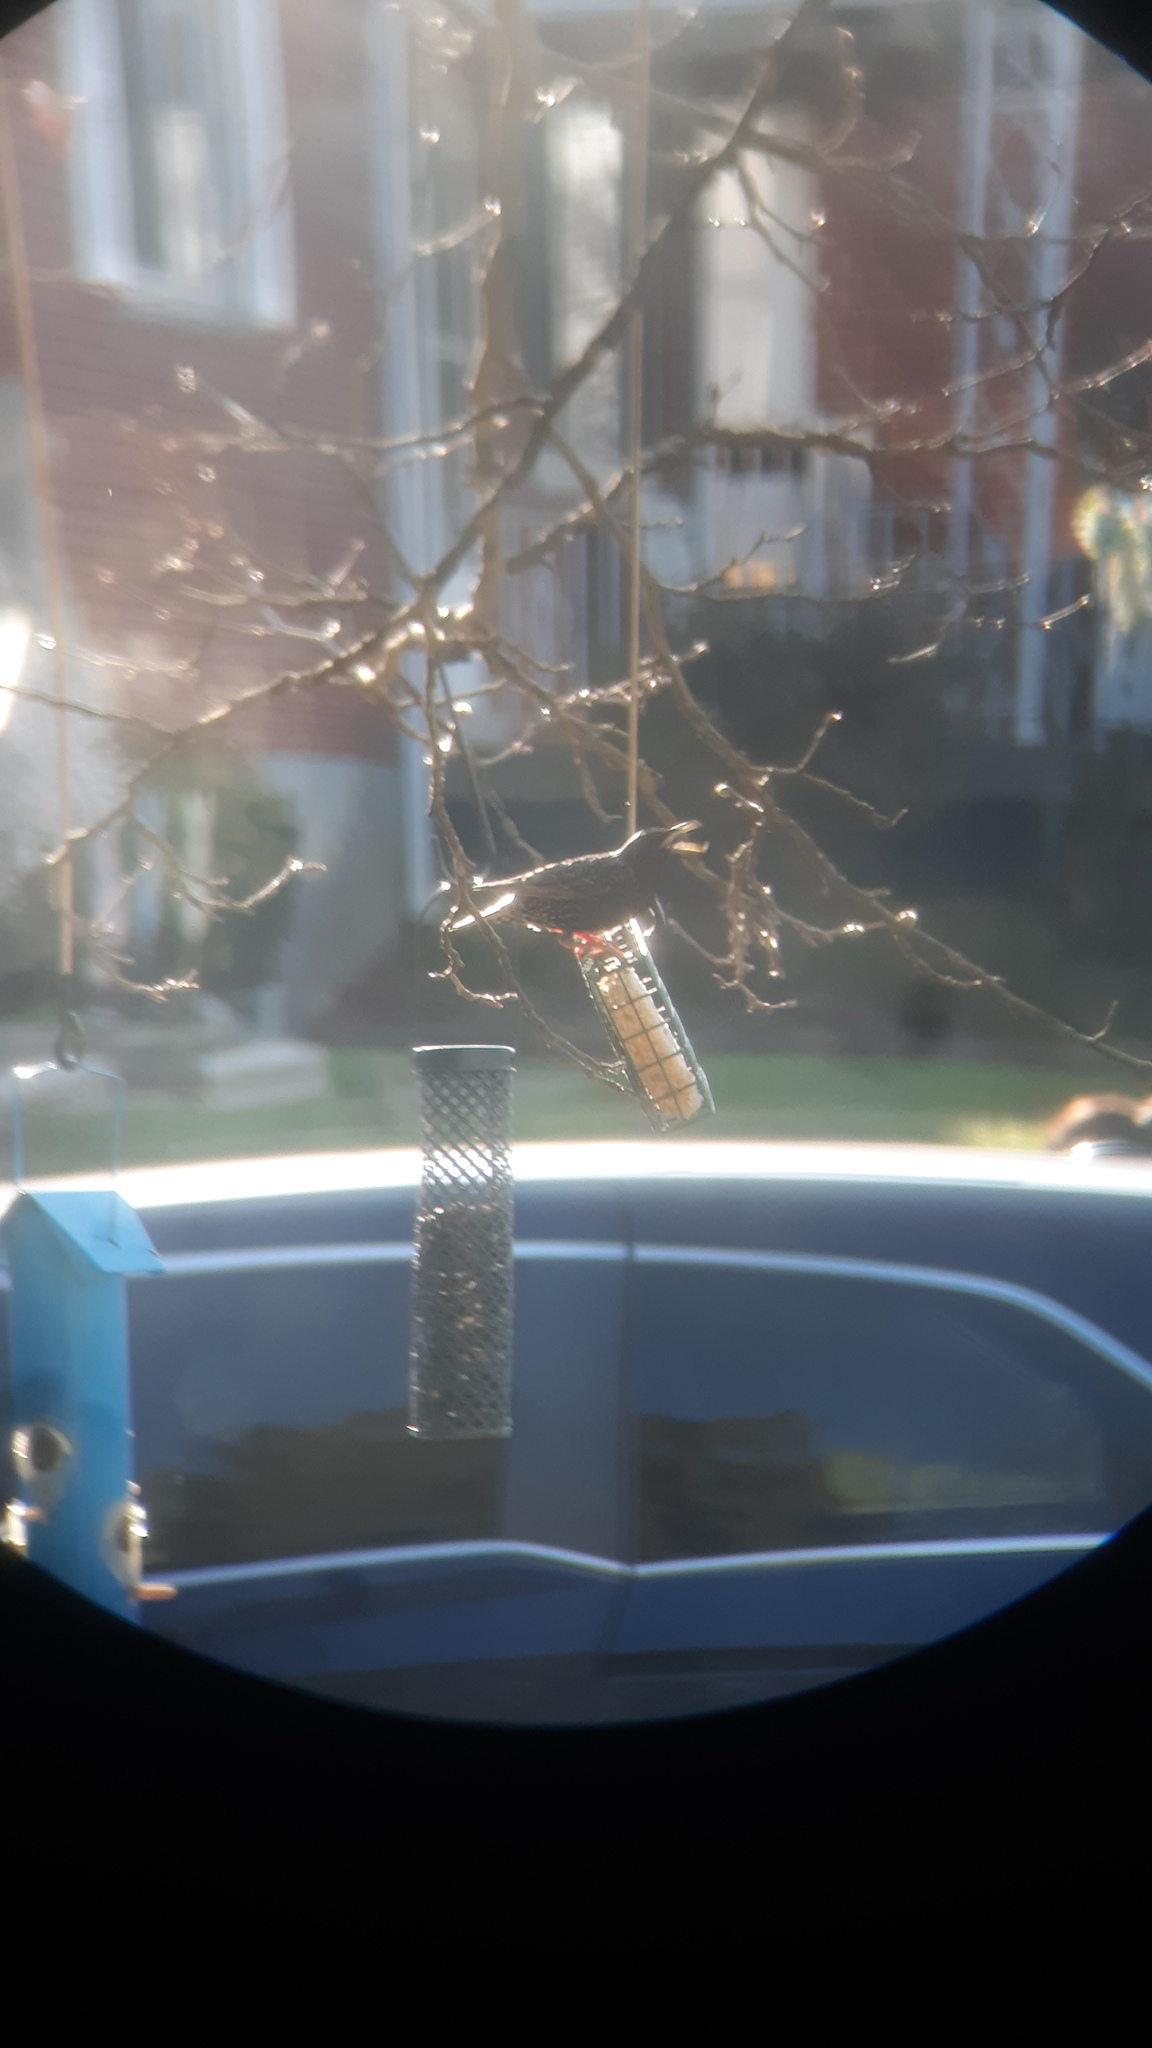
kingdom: Animalia
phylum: Chordata
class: Aves
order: Passeriformes
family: Sturnidae
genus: Sturnus
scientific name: Sturnus vulgaris
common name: Common starling
